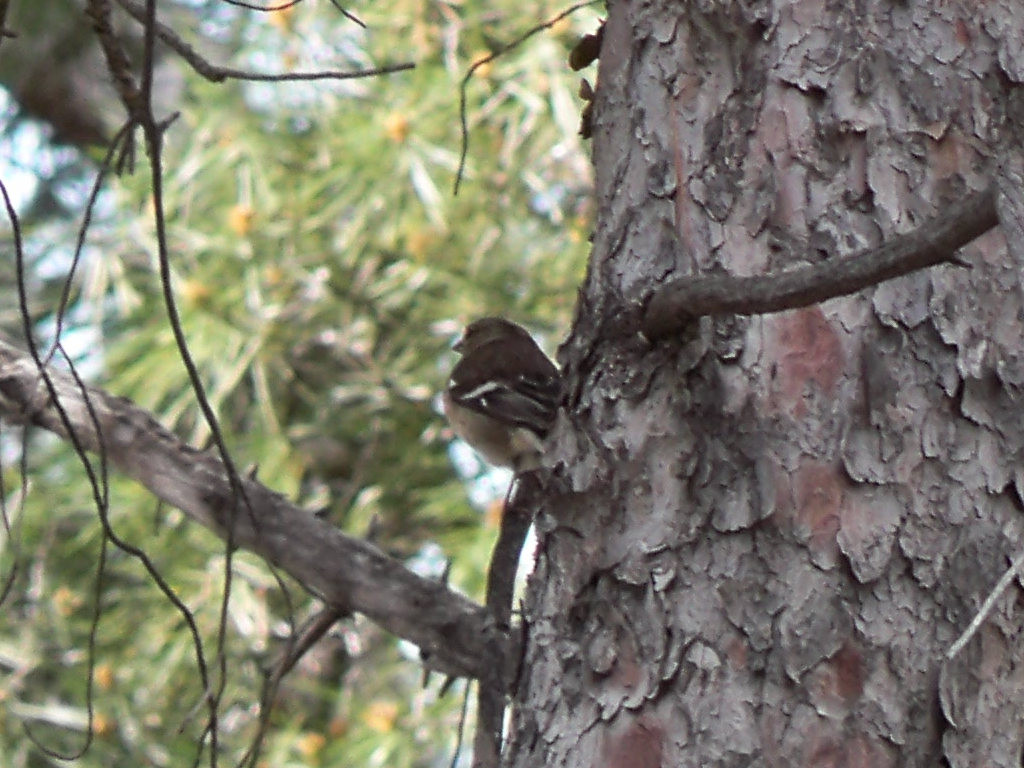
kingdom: Animalia
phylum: Chordata
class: Aves
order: Passeriformes
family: Fringillidae
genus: Fringilla
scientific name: Fringilla coelebs
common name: Common chaffinch
